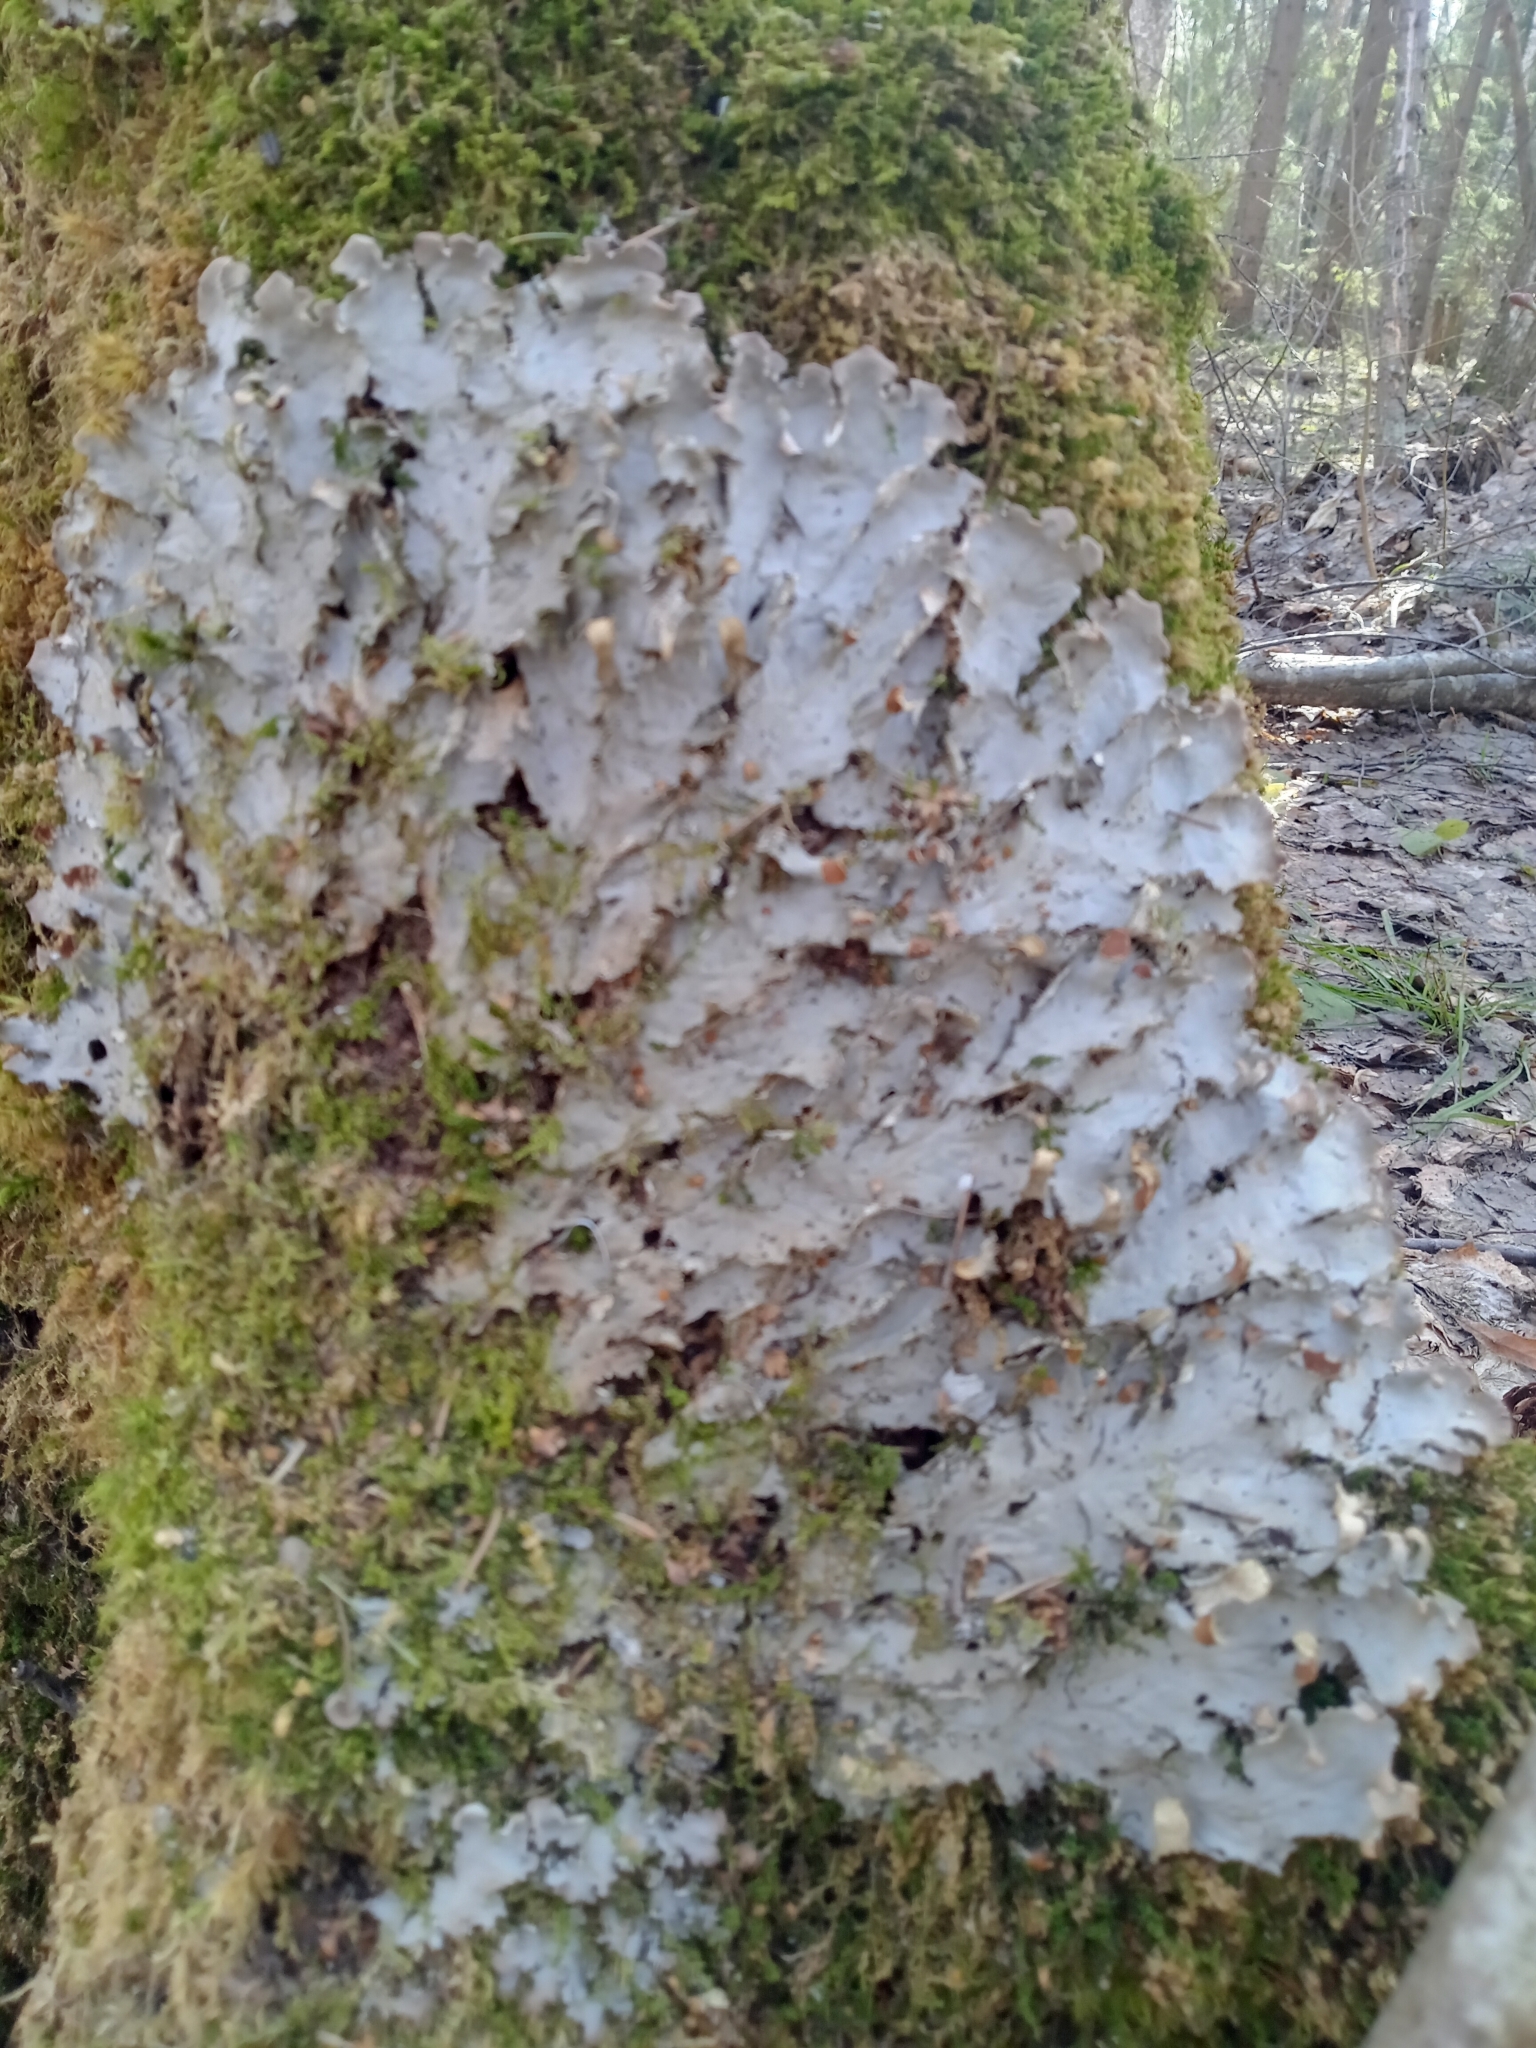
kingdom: Fungi
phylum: Ascomycota
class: Lecanoromycetes
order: Peltigerales
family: Peltigeraceae
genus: Peltigera
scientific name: Peltigera praetextata
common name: Scaly dog-lichen
